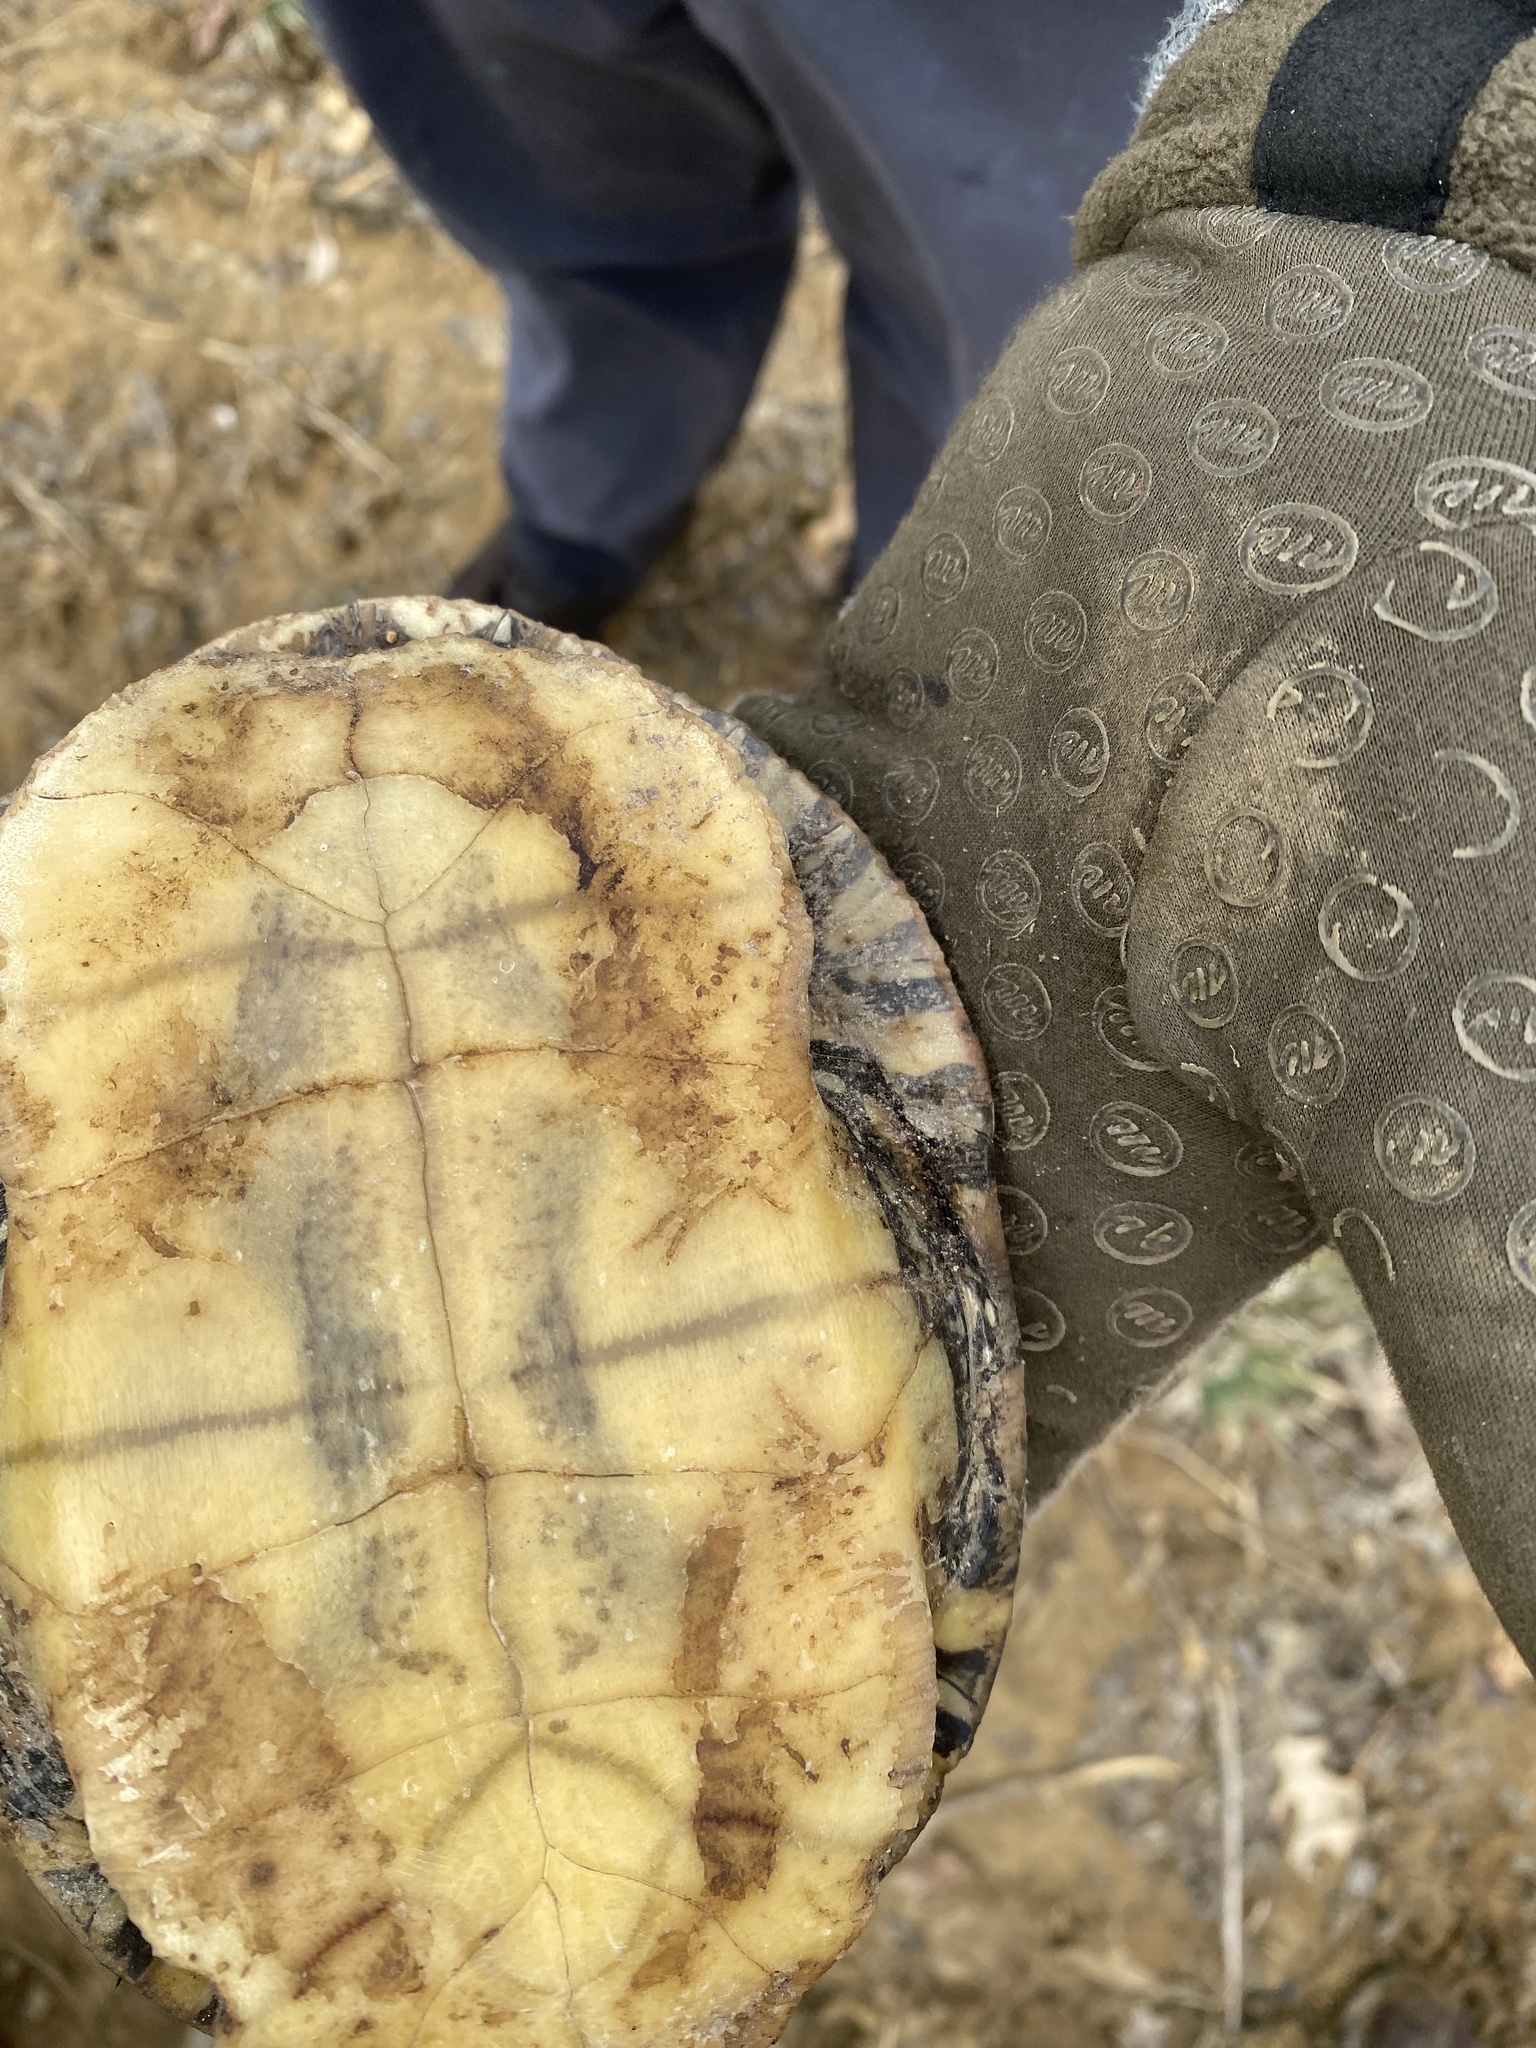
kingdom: Animalia
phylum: Chordata
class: Testudines
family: Emydidae
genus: Chrysemys
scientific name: Chrysemys picta
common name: Painted turtle
